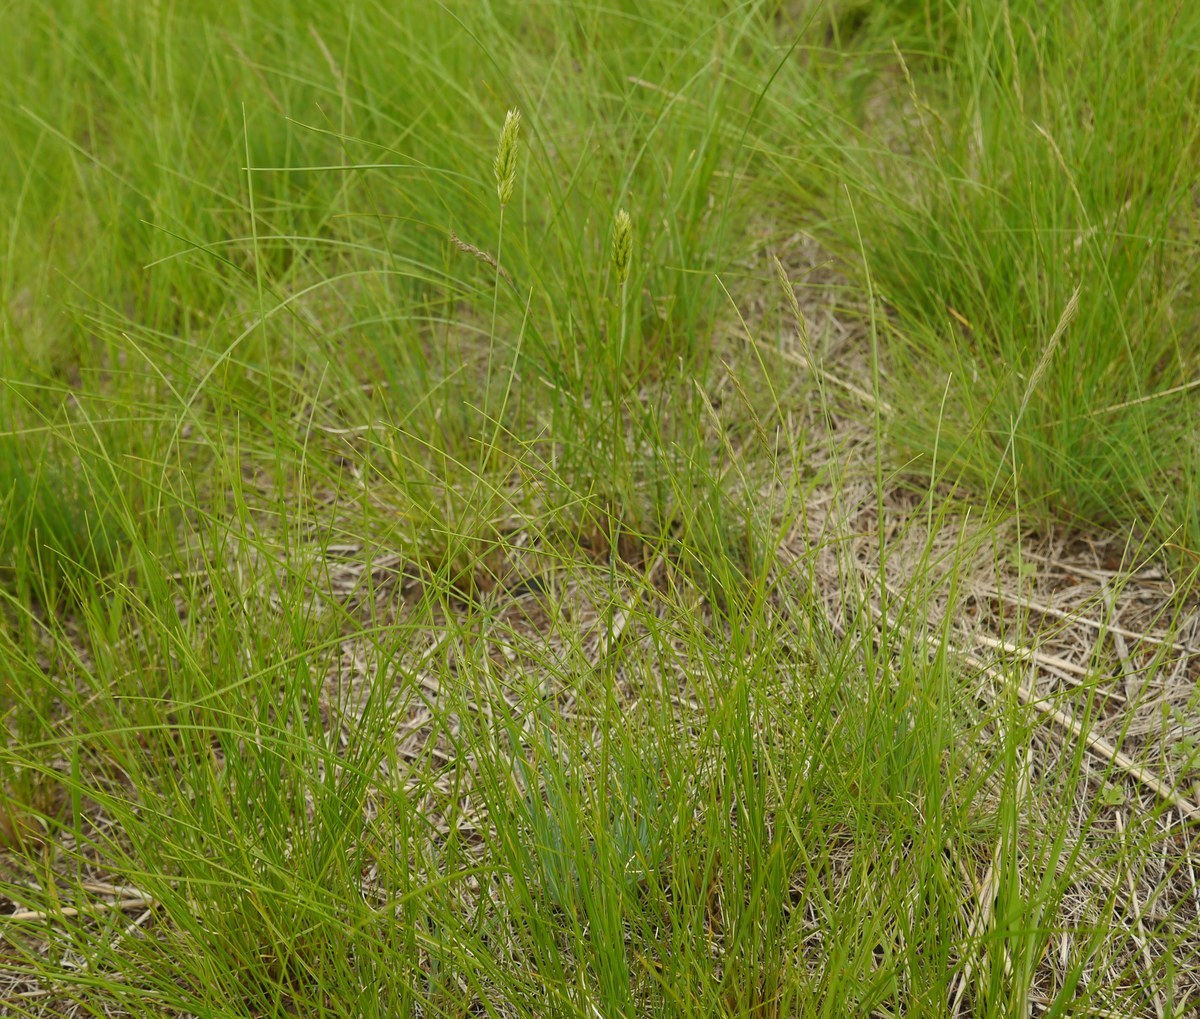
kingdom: Plantae
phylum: Tracheophyta
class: Liliopsida
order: Poales
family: Poaceae
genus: Koeleria
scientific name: Koeleria brevis
